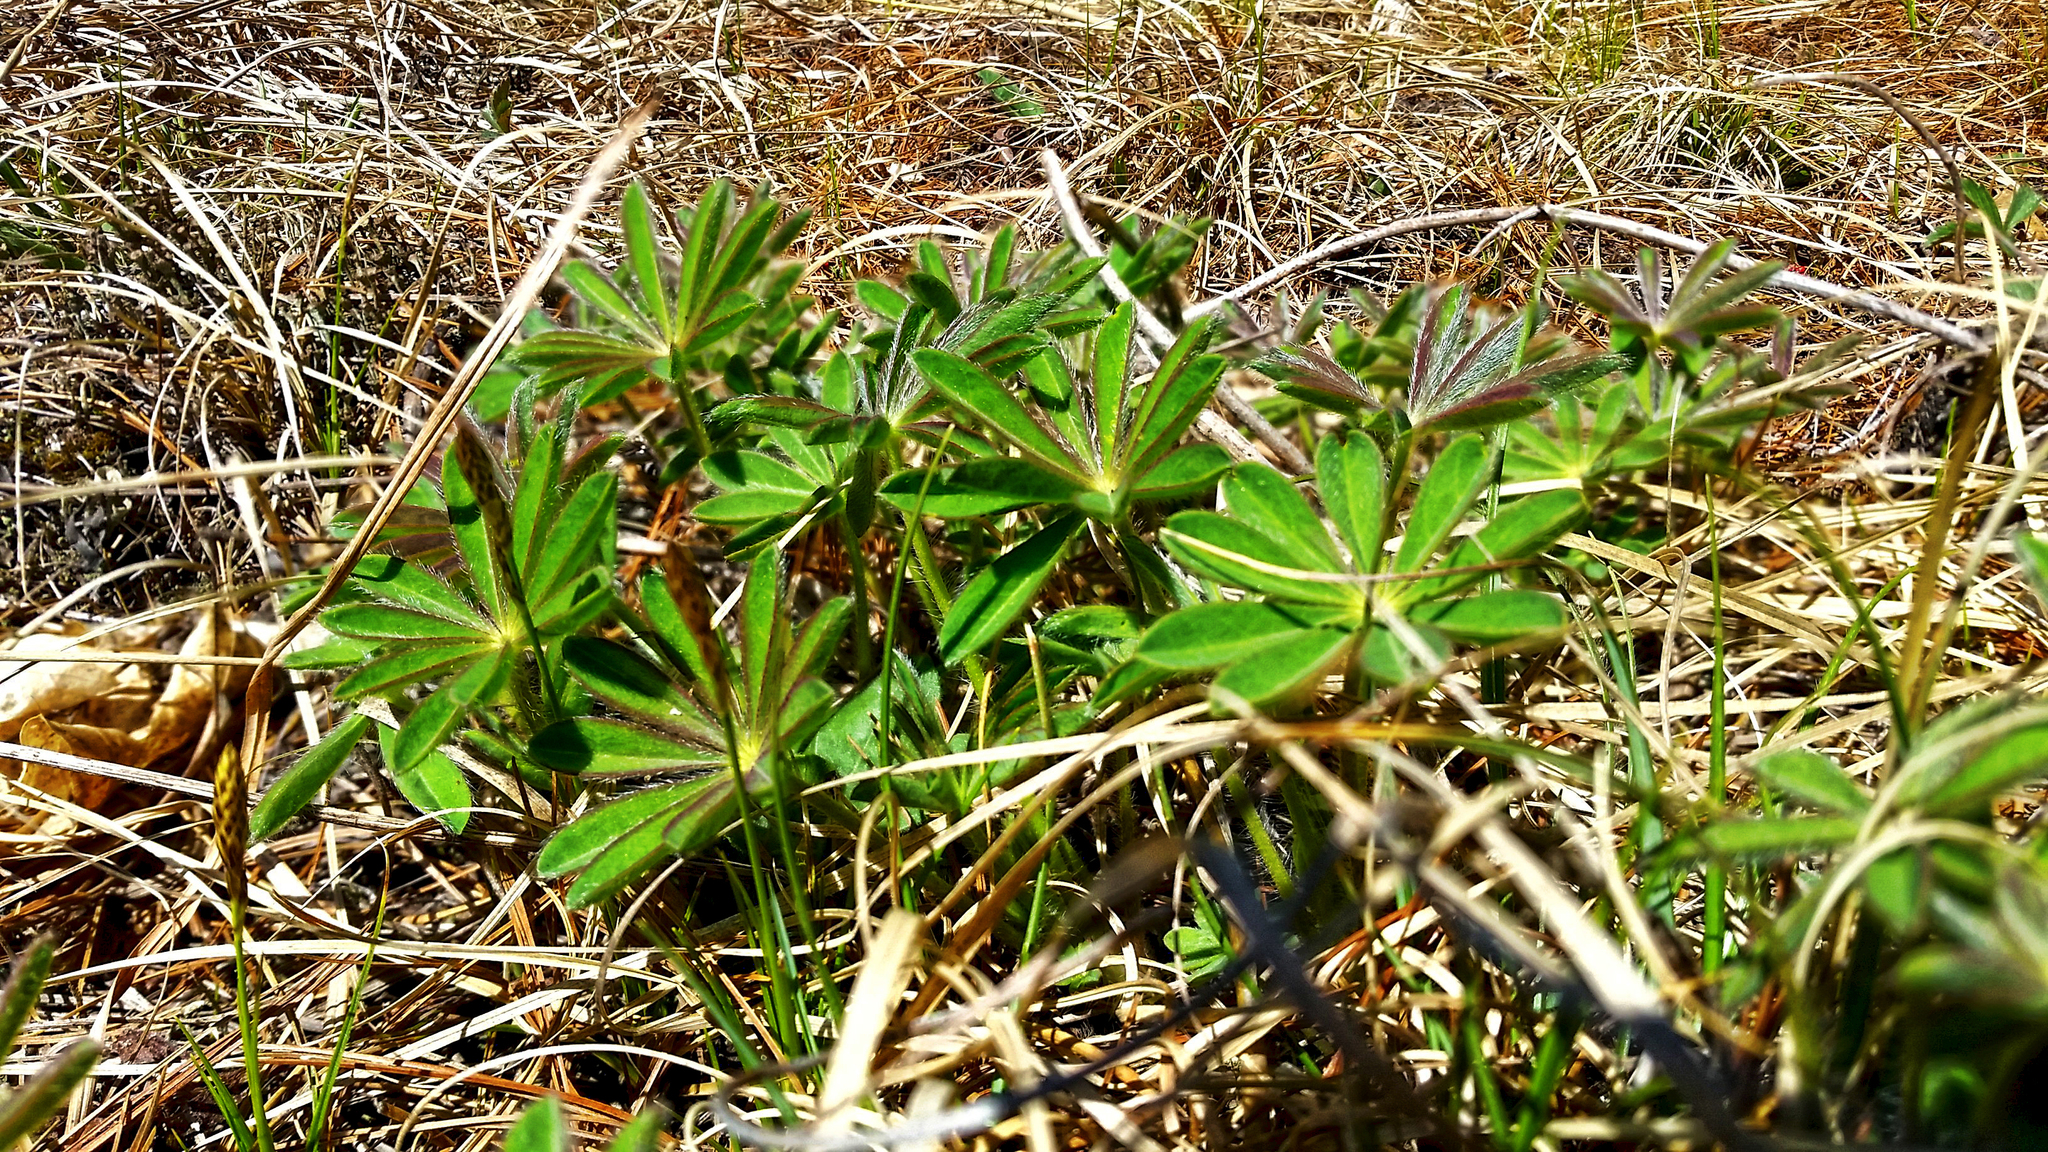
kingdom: Plantae
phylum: Tracheophyta
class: Magnoliopsida
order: Fabales
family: Fabaceae
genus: Lupinus
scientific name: Lupinus perennis
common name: Sundial lupine
